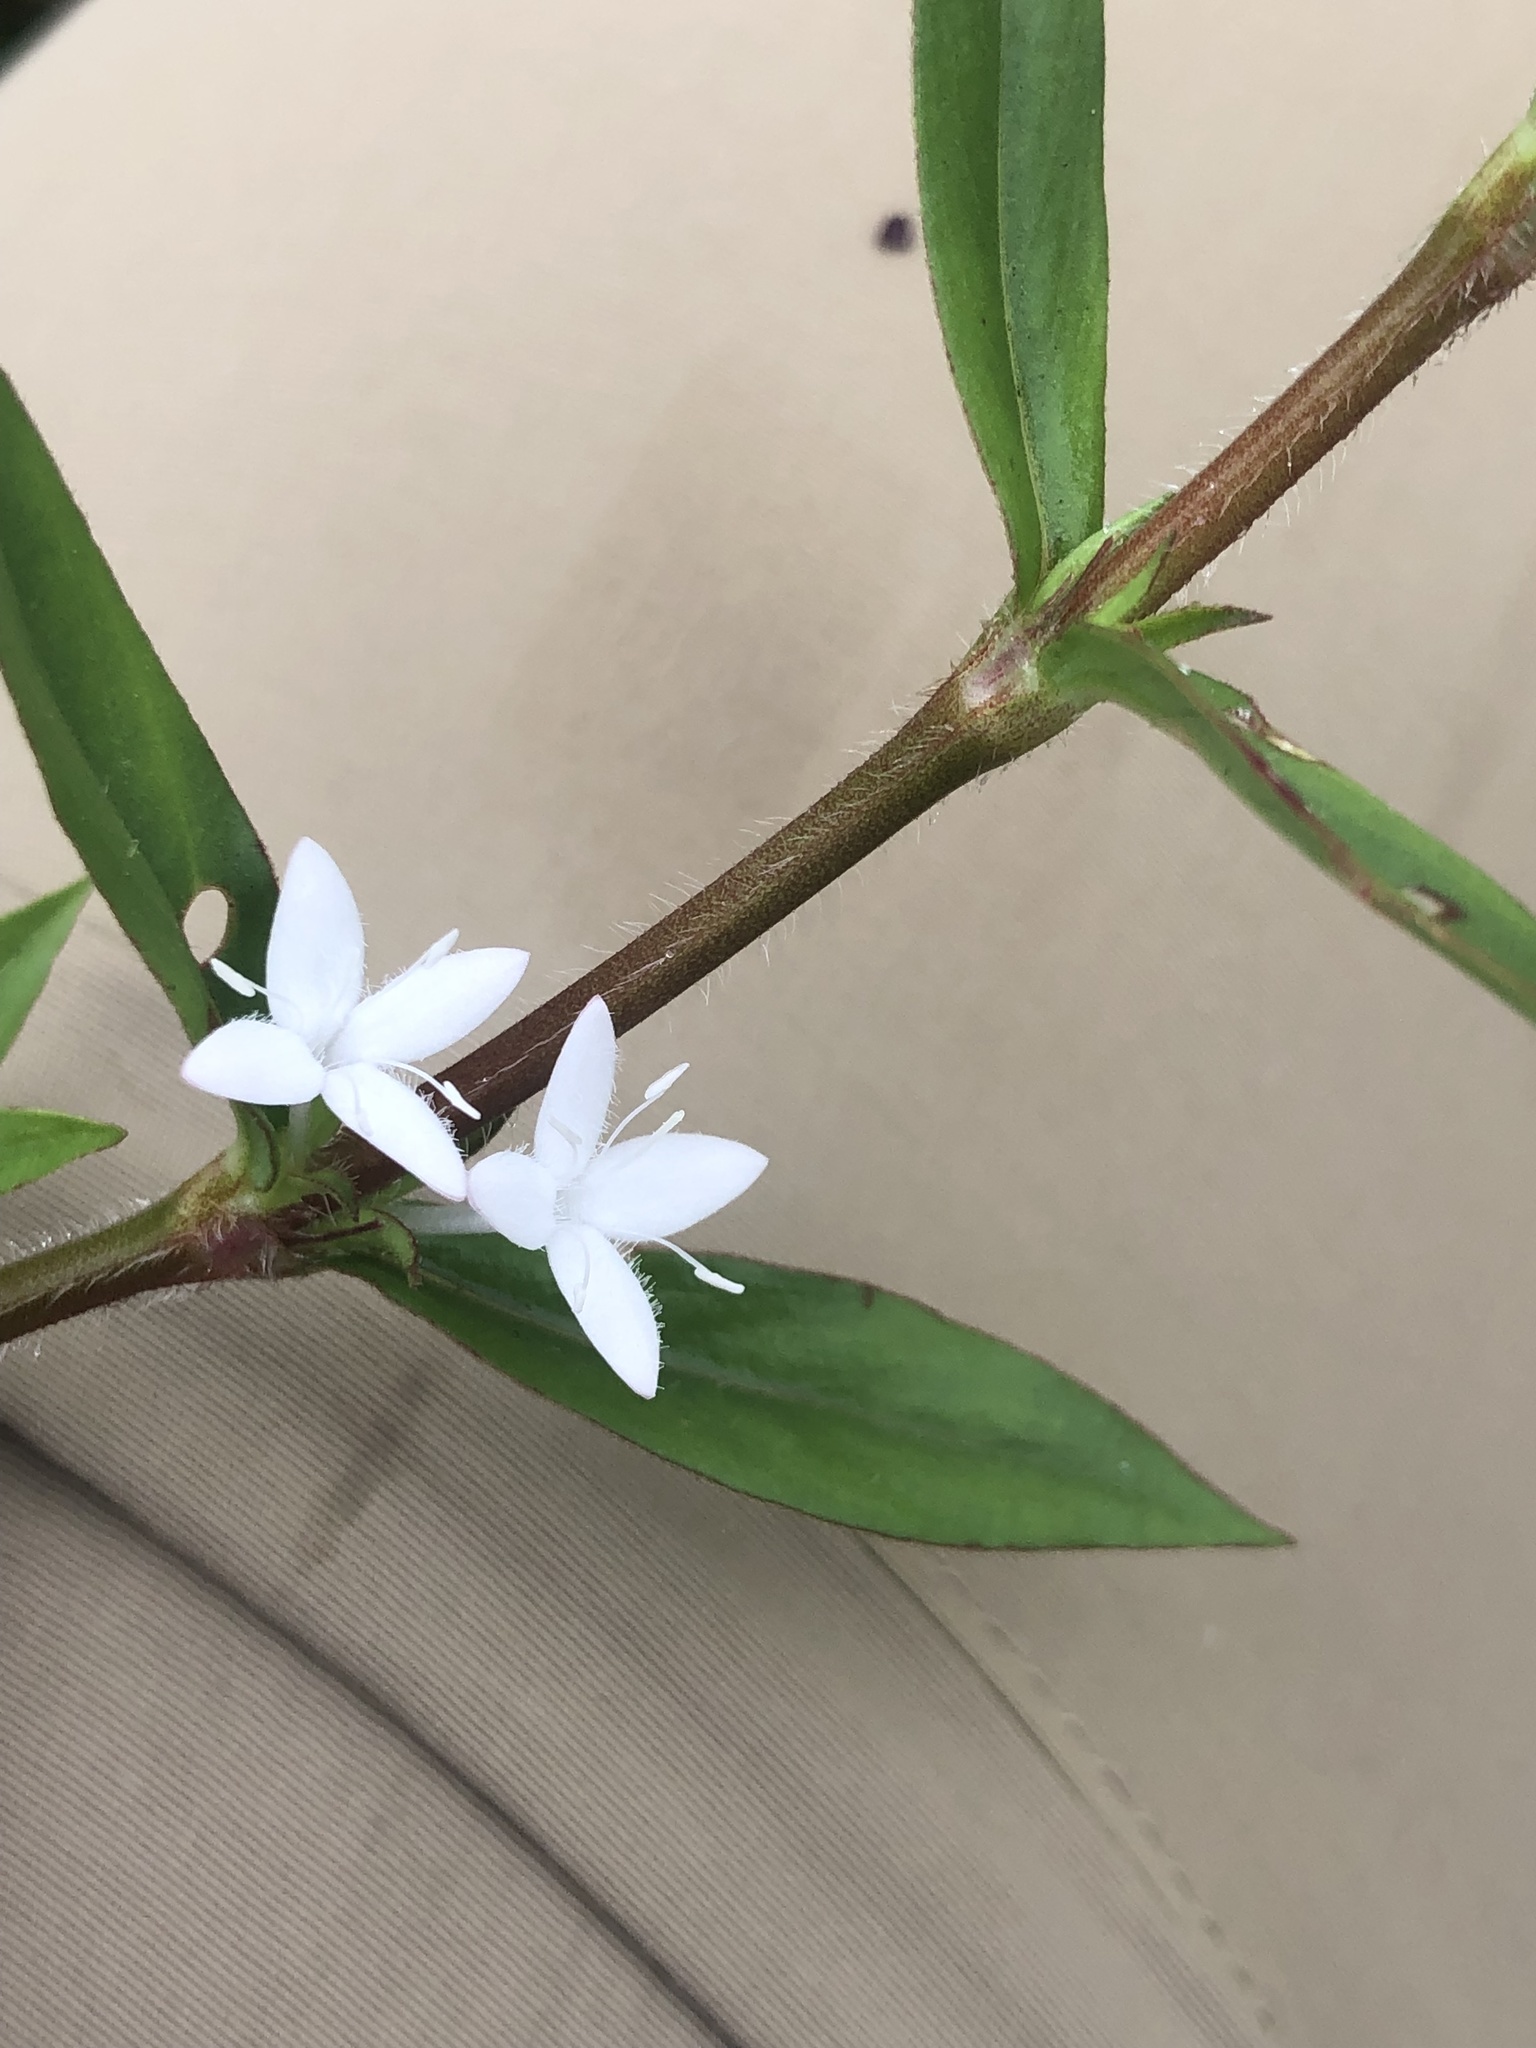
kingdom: Plantae
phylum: Tracheophyta
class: Magnoliopsida
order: Gentianales
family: Rubiaceae
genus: Diodia
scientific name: Diodia virginiana
